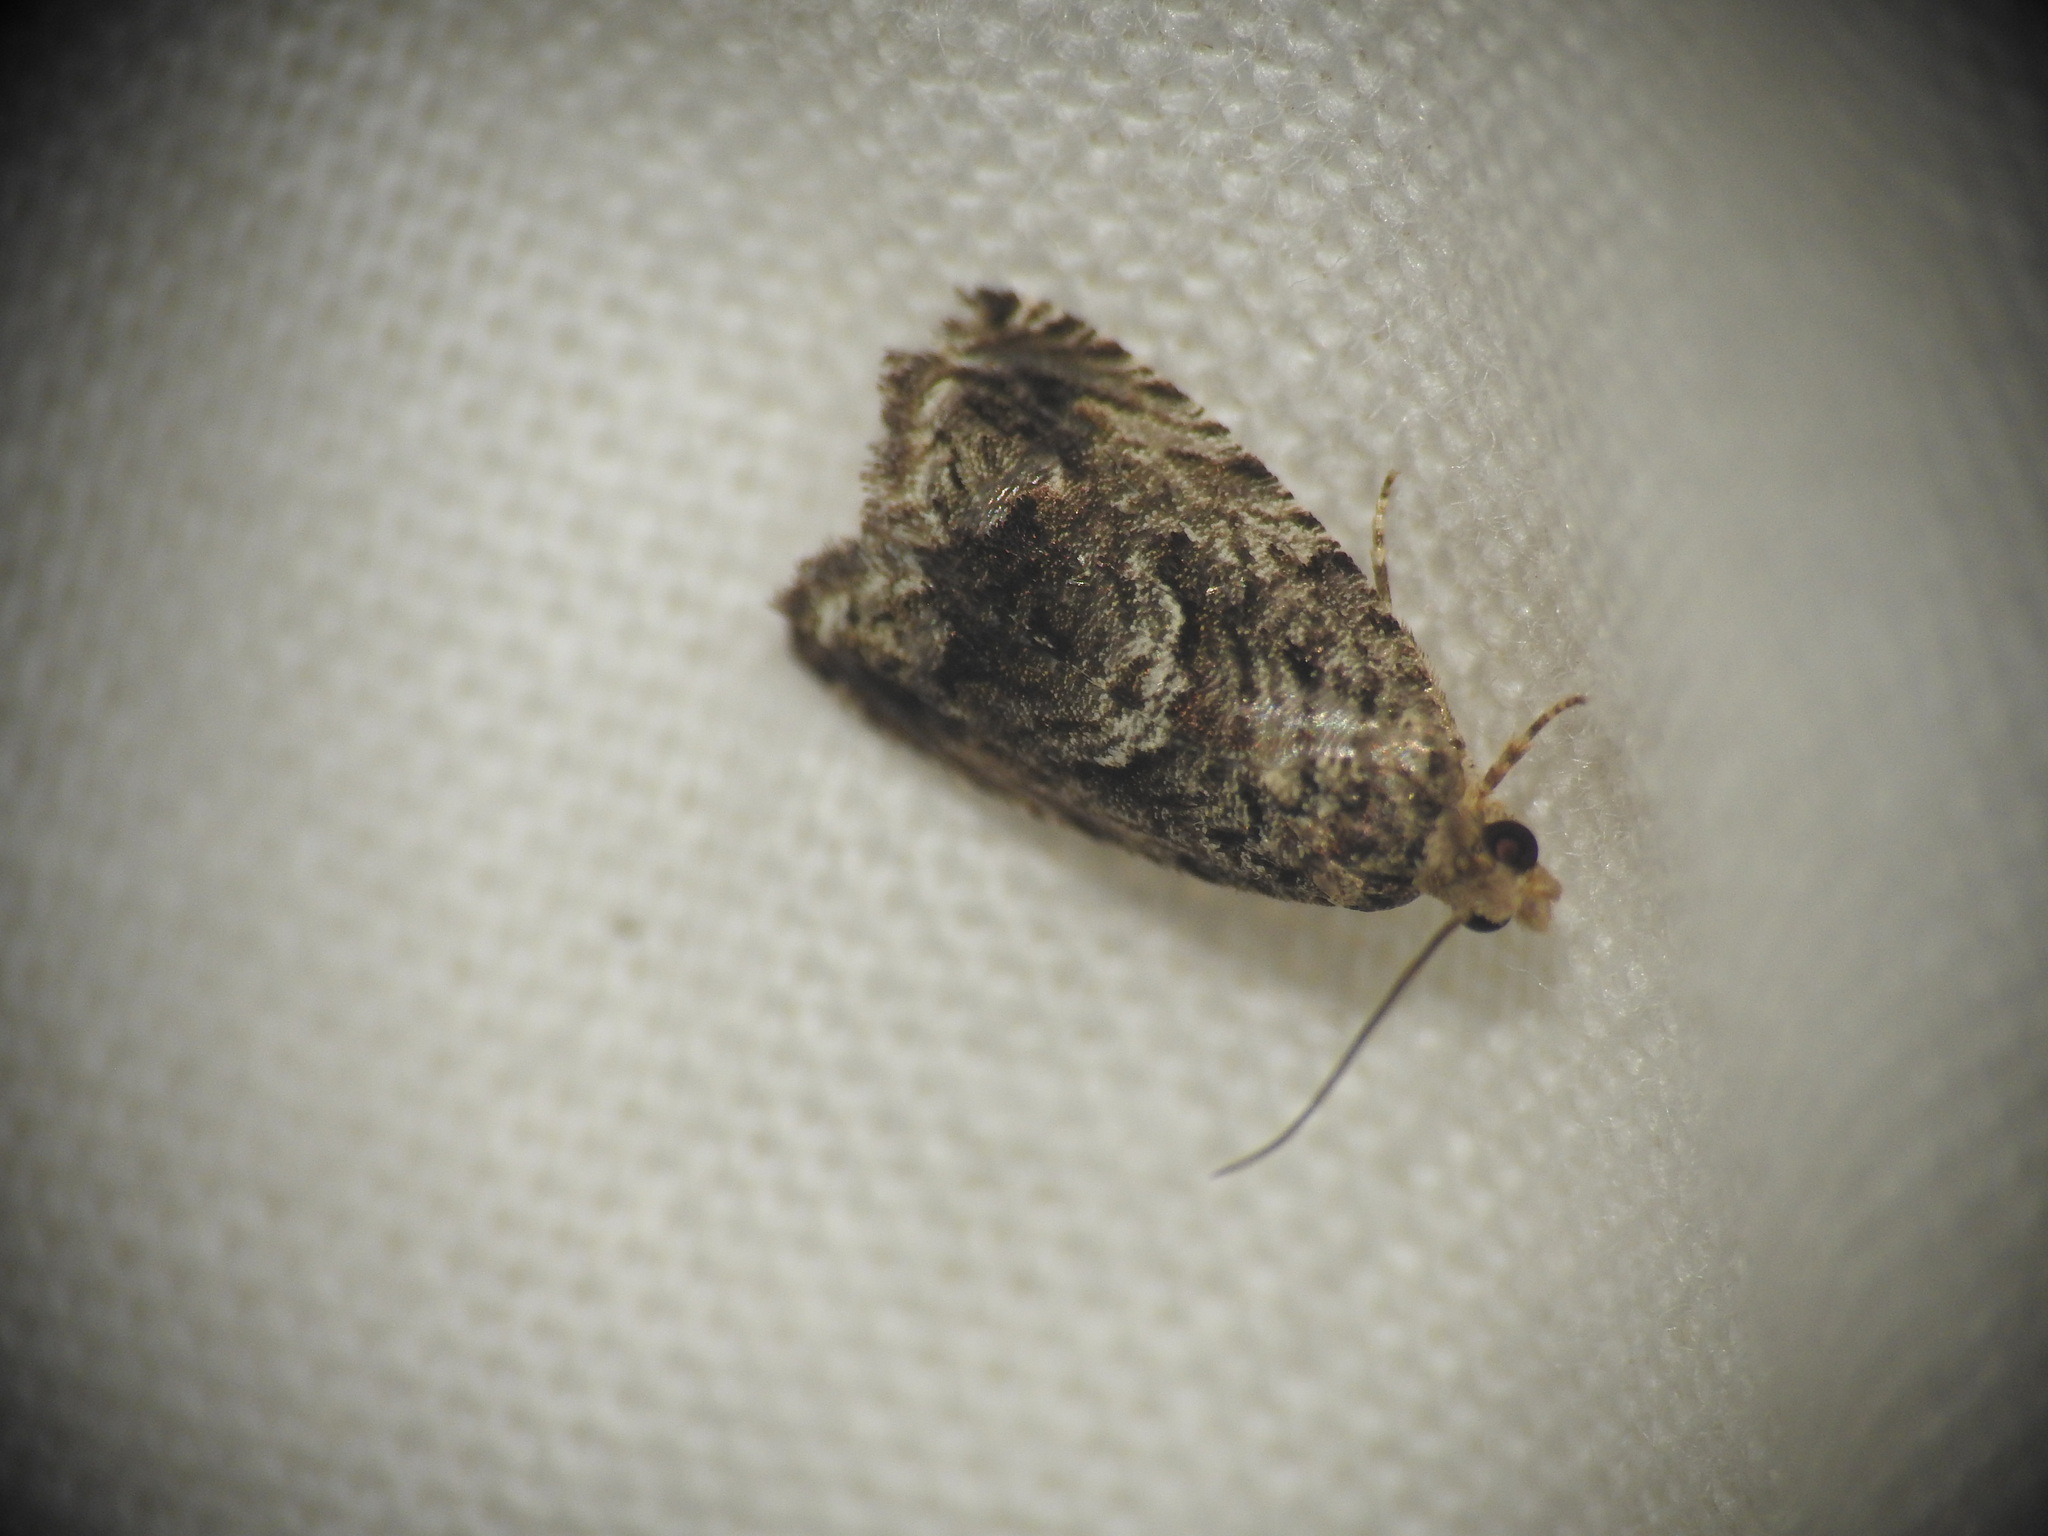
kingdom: Animalia
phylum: Arthropoda
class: Insecta
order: Lepidoptera
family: Tortricidae
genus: Cydia
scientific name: Cydia fagiglandana
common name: Large beech piercer
